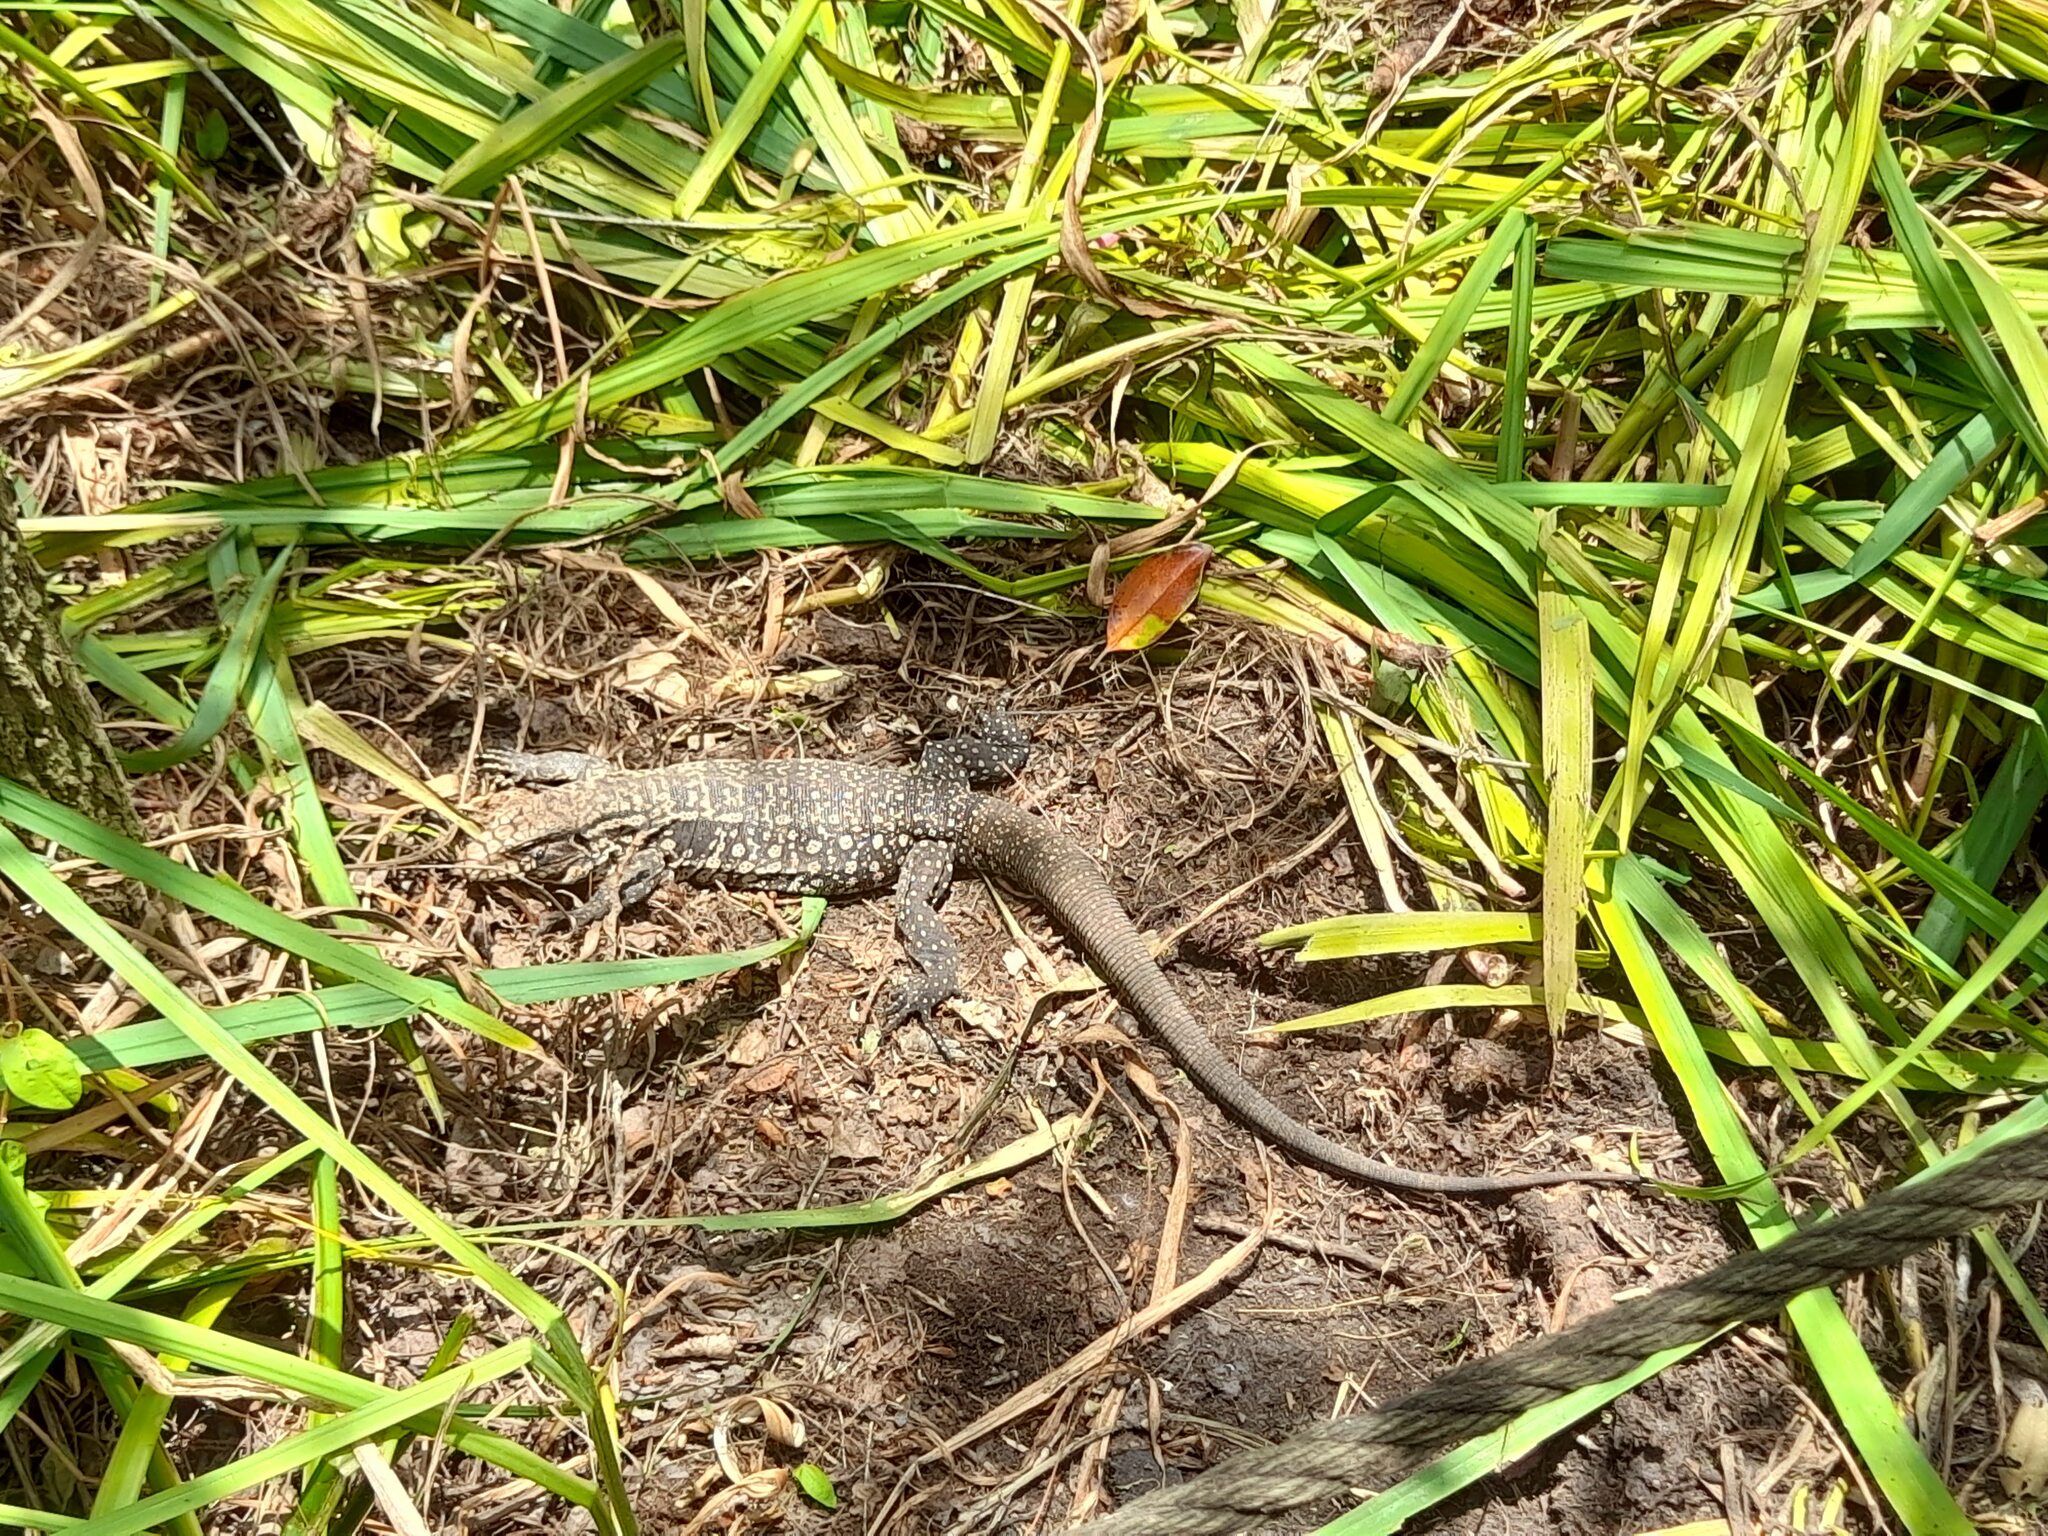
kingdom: Animalia
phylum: Chordata
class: Squamata
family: Teiidae
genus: Salvator
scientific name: Salvator merianae
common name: Argentine black and white tegu
